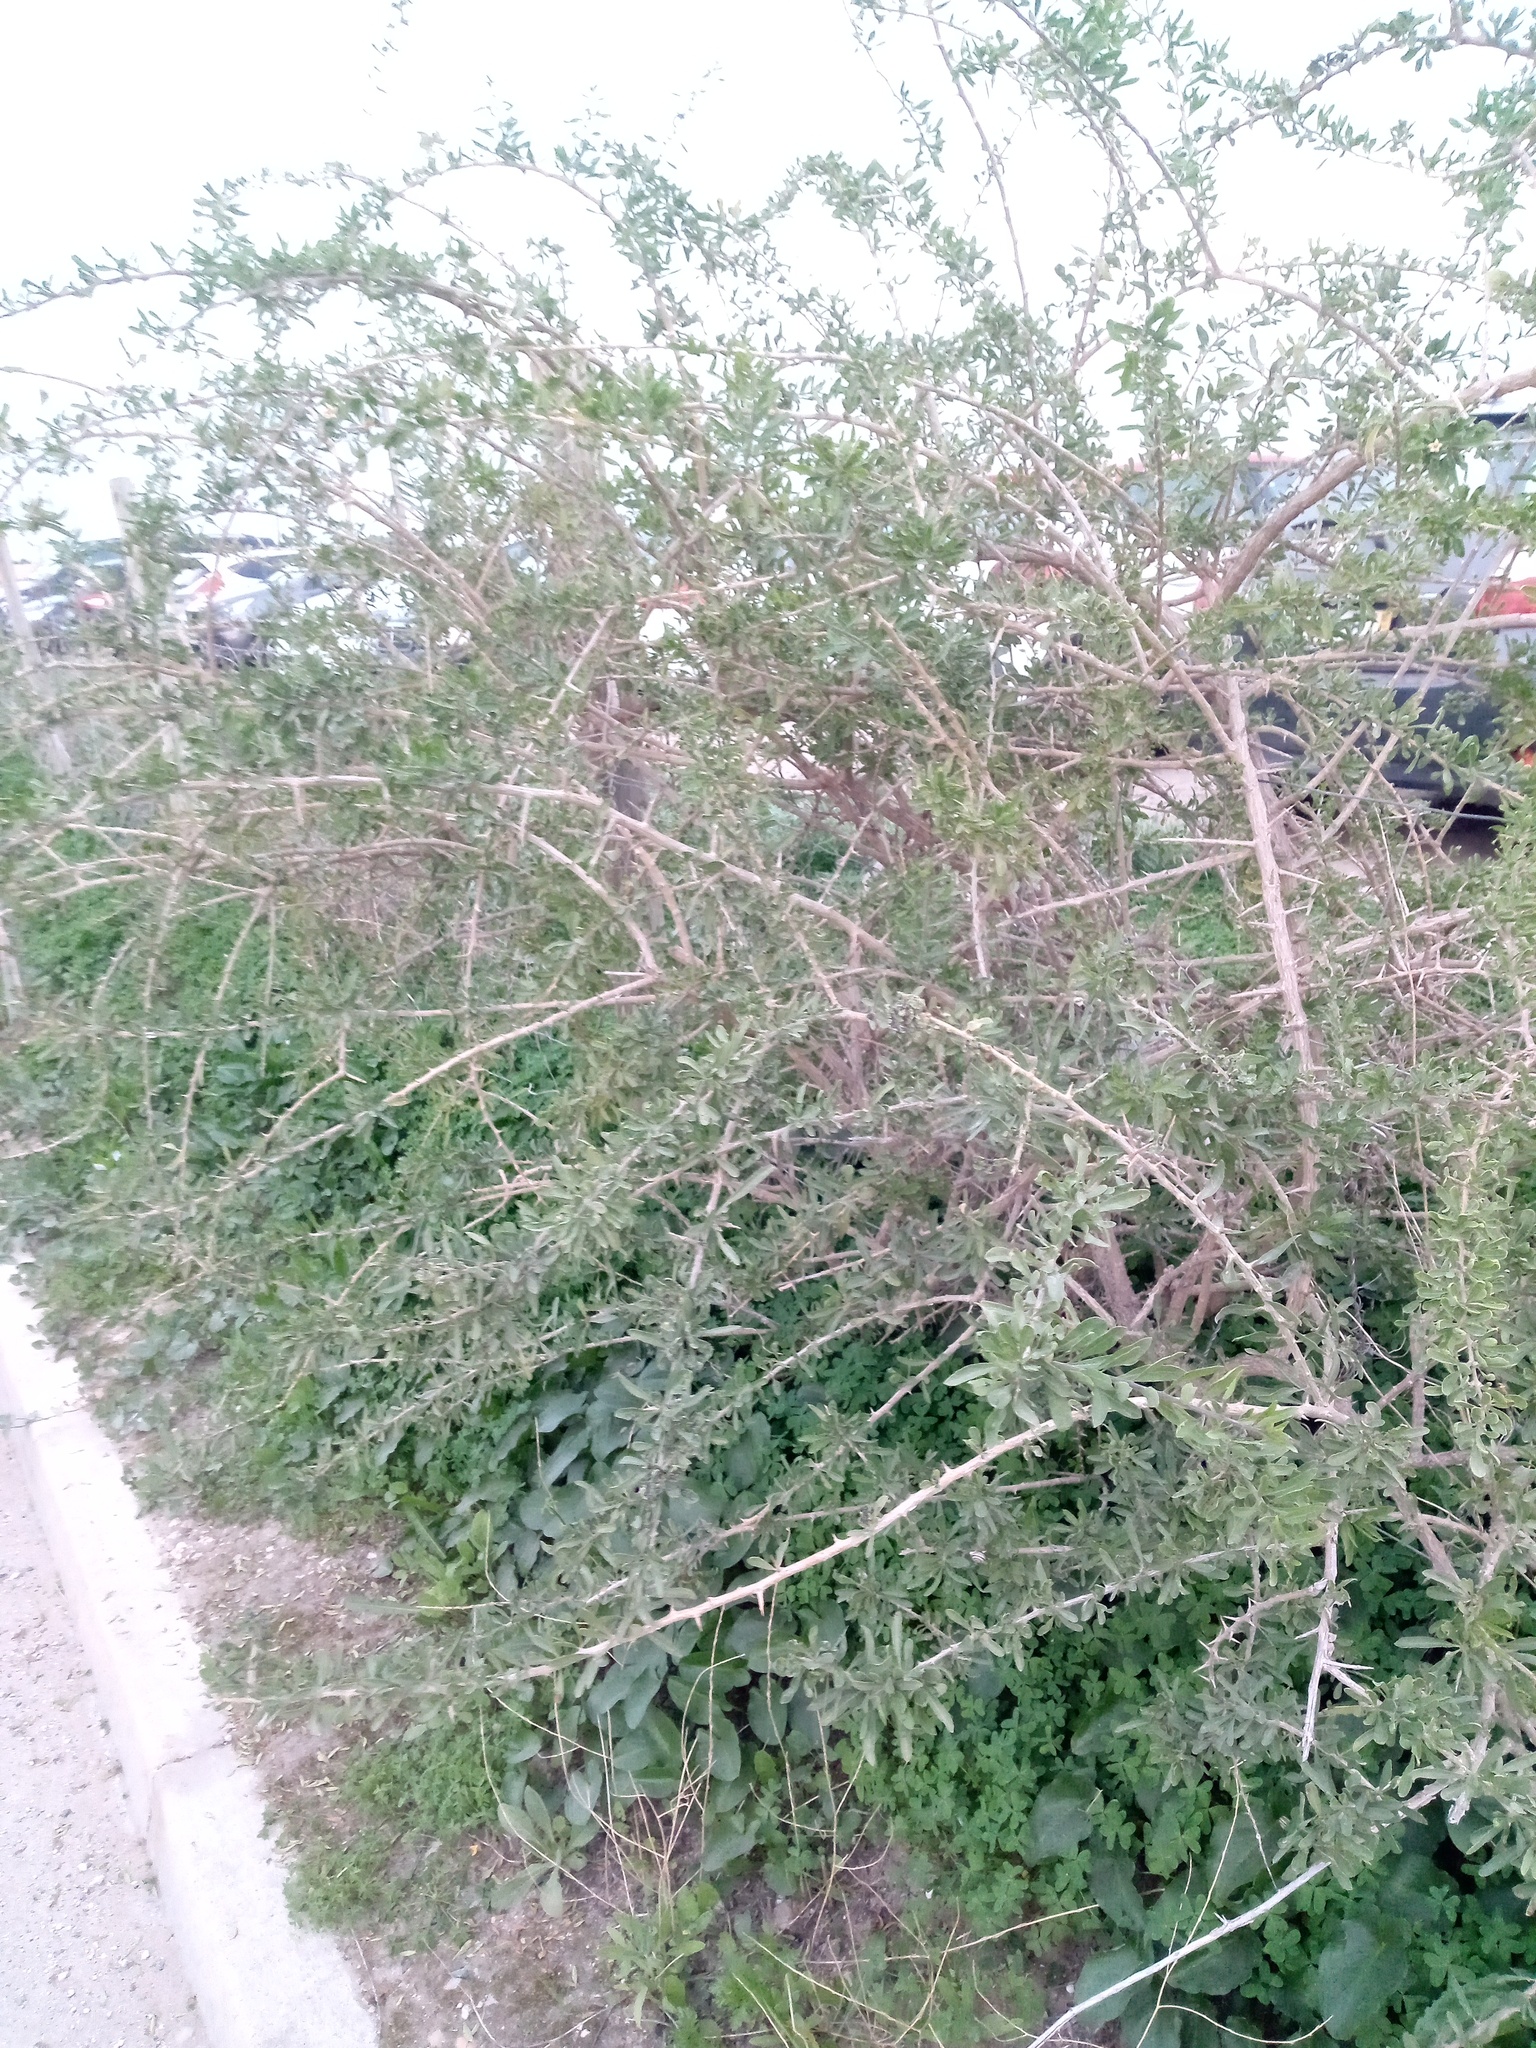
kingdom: Plantae
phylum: Tracheophyta
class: Magnoliopsida
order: Solanales
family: Solanaceae
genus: Lycium
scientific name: Lycium europaeum
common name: Boxthorn
